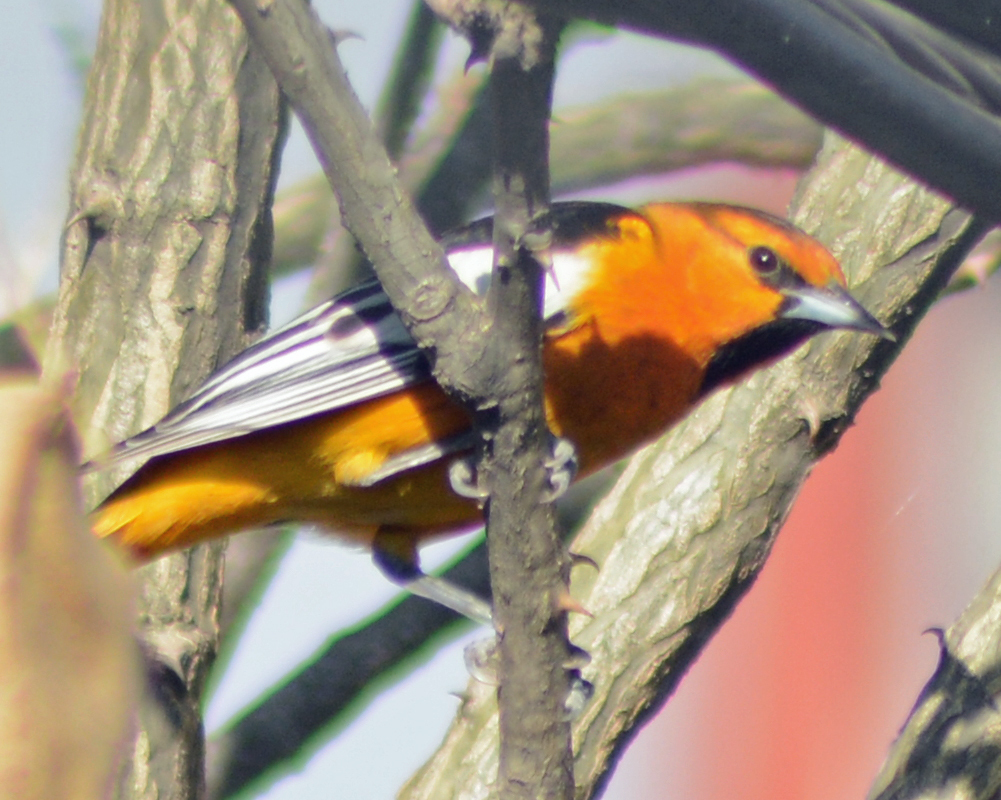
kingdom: Animalia
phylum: Chordata
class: Aves
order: Passeriformes
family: Icteridae
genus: Icterus
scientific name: Icterus bullockii
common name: Bullock's oriole
